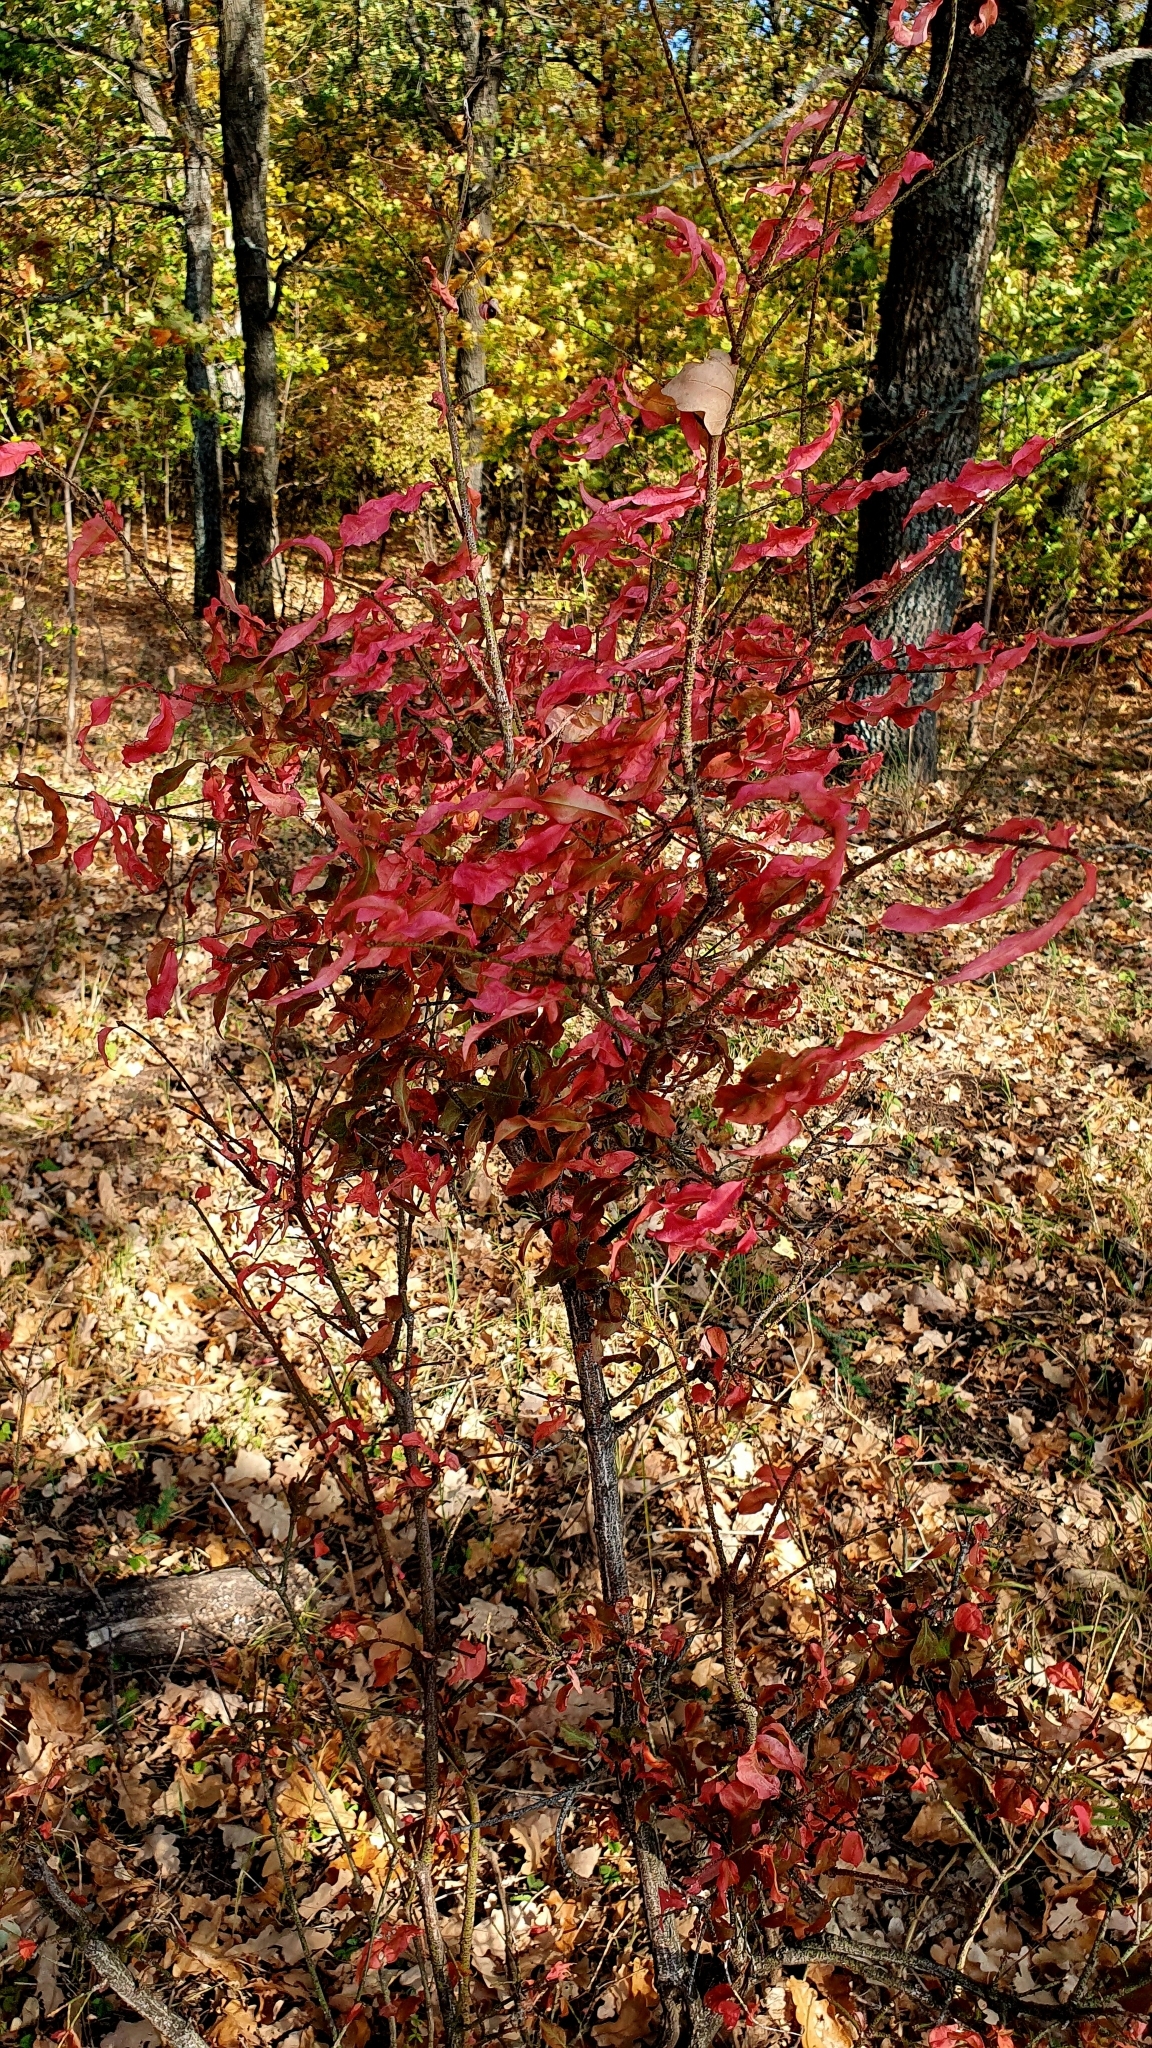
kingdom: Plantae
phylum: Tracheophyta
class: Magnoliopsida
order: Celastrales
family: Celastraceae
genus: Euonymus
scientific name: Euonymus verrucosus
